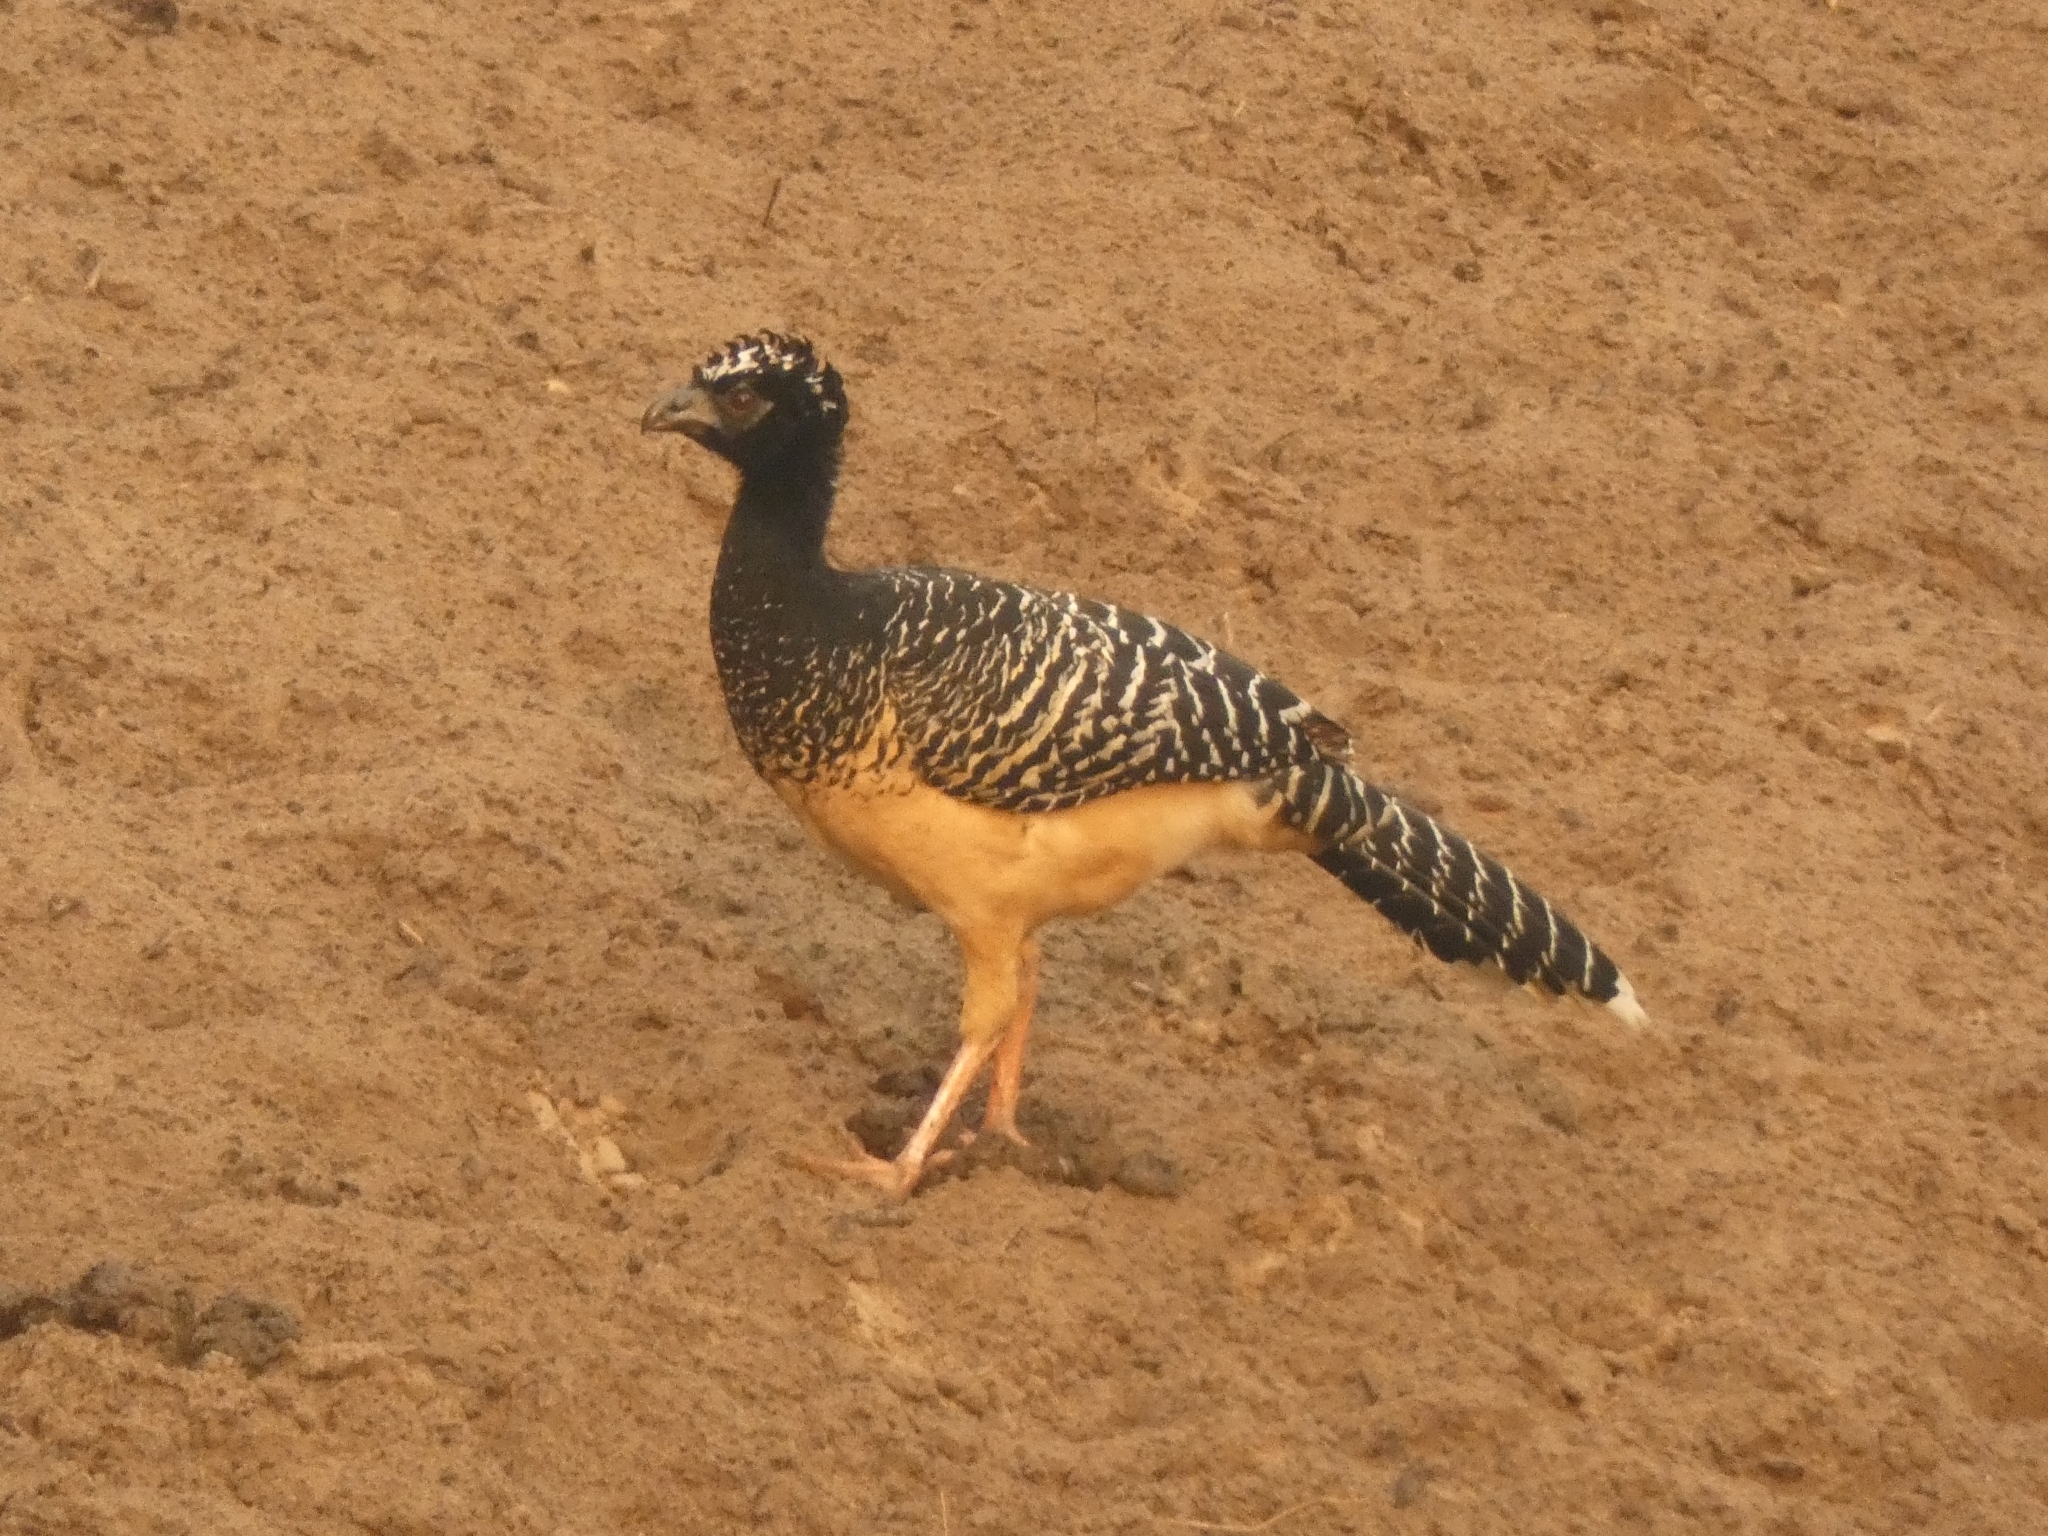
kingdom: Animalia
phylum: Chordata
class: Aves
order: Galliformes
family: Cracidae
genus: Crax
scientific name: Crax fasciolata
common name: Bare-faced curassow
